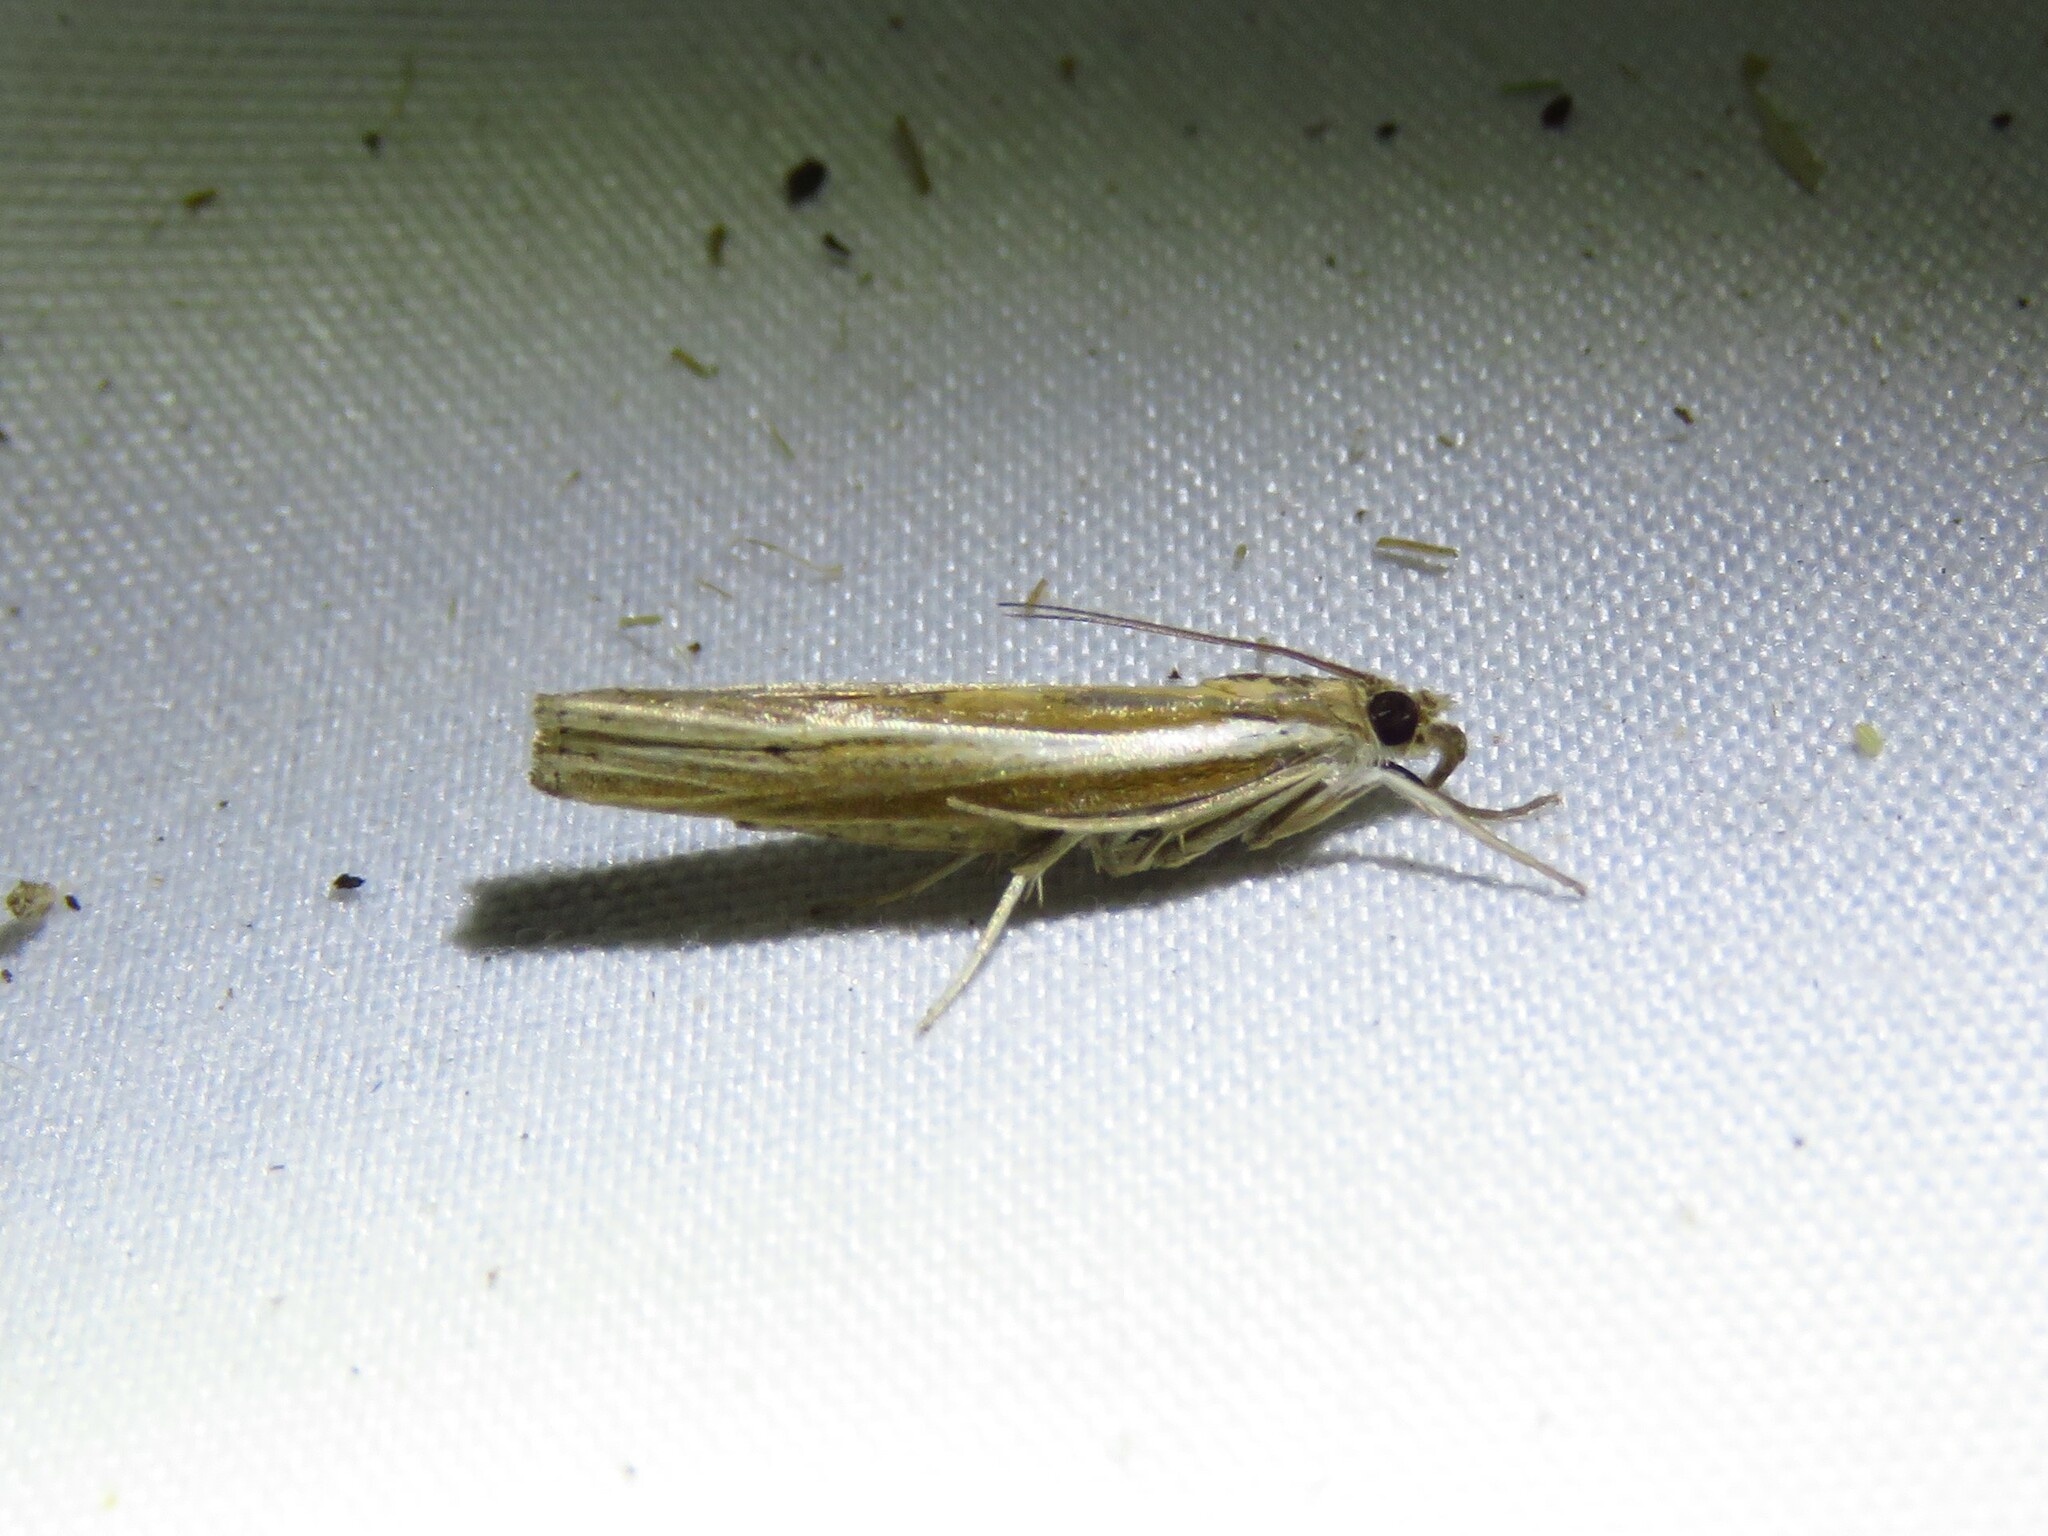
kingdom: Animalia
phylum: Arthropoda
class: Insecta
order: Lepidoptera
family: Crambidae
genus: Fissicrambus
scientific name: Fissicrambus fissiradiellus
